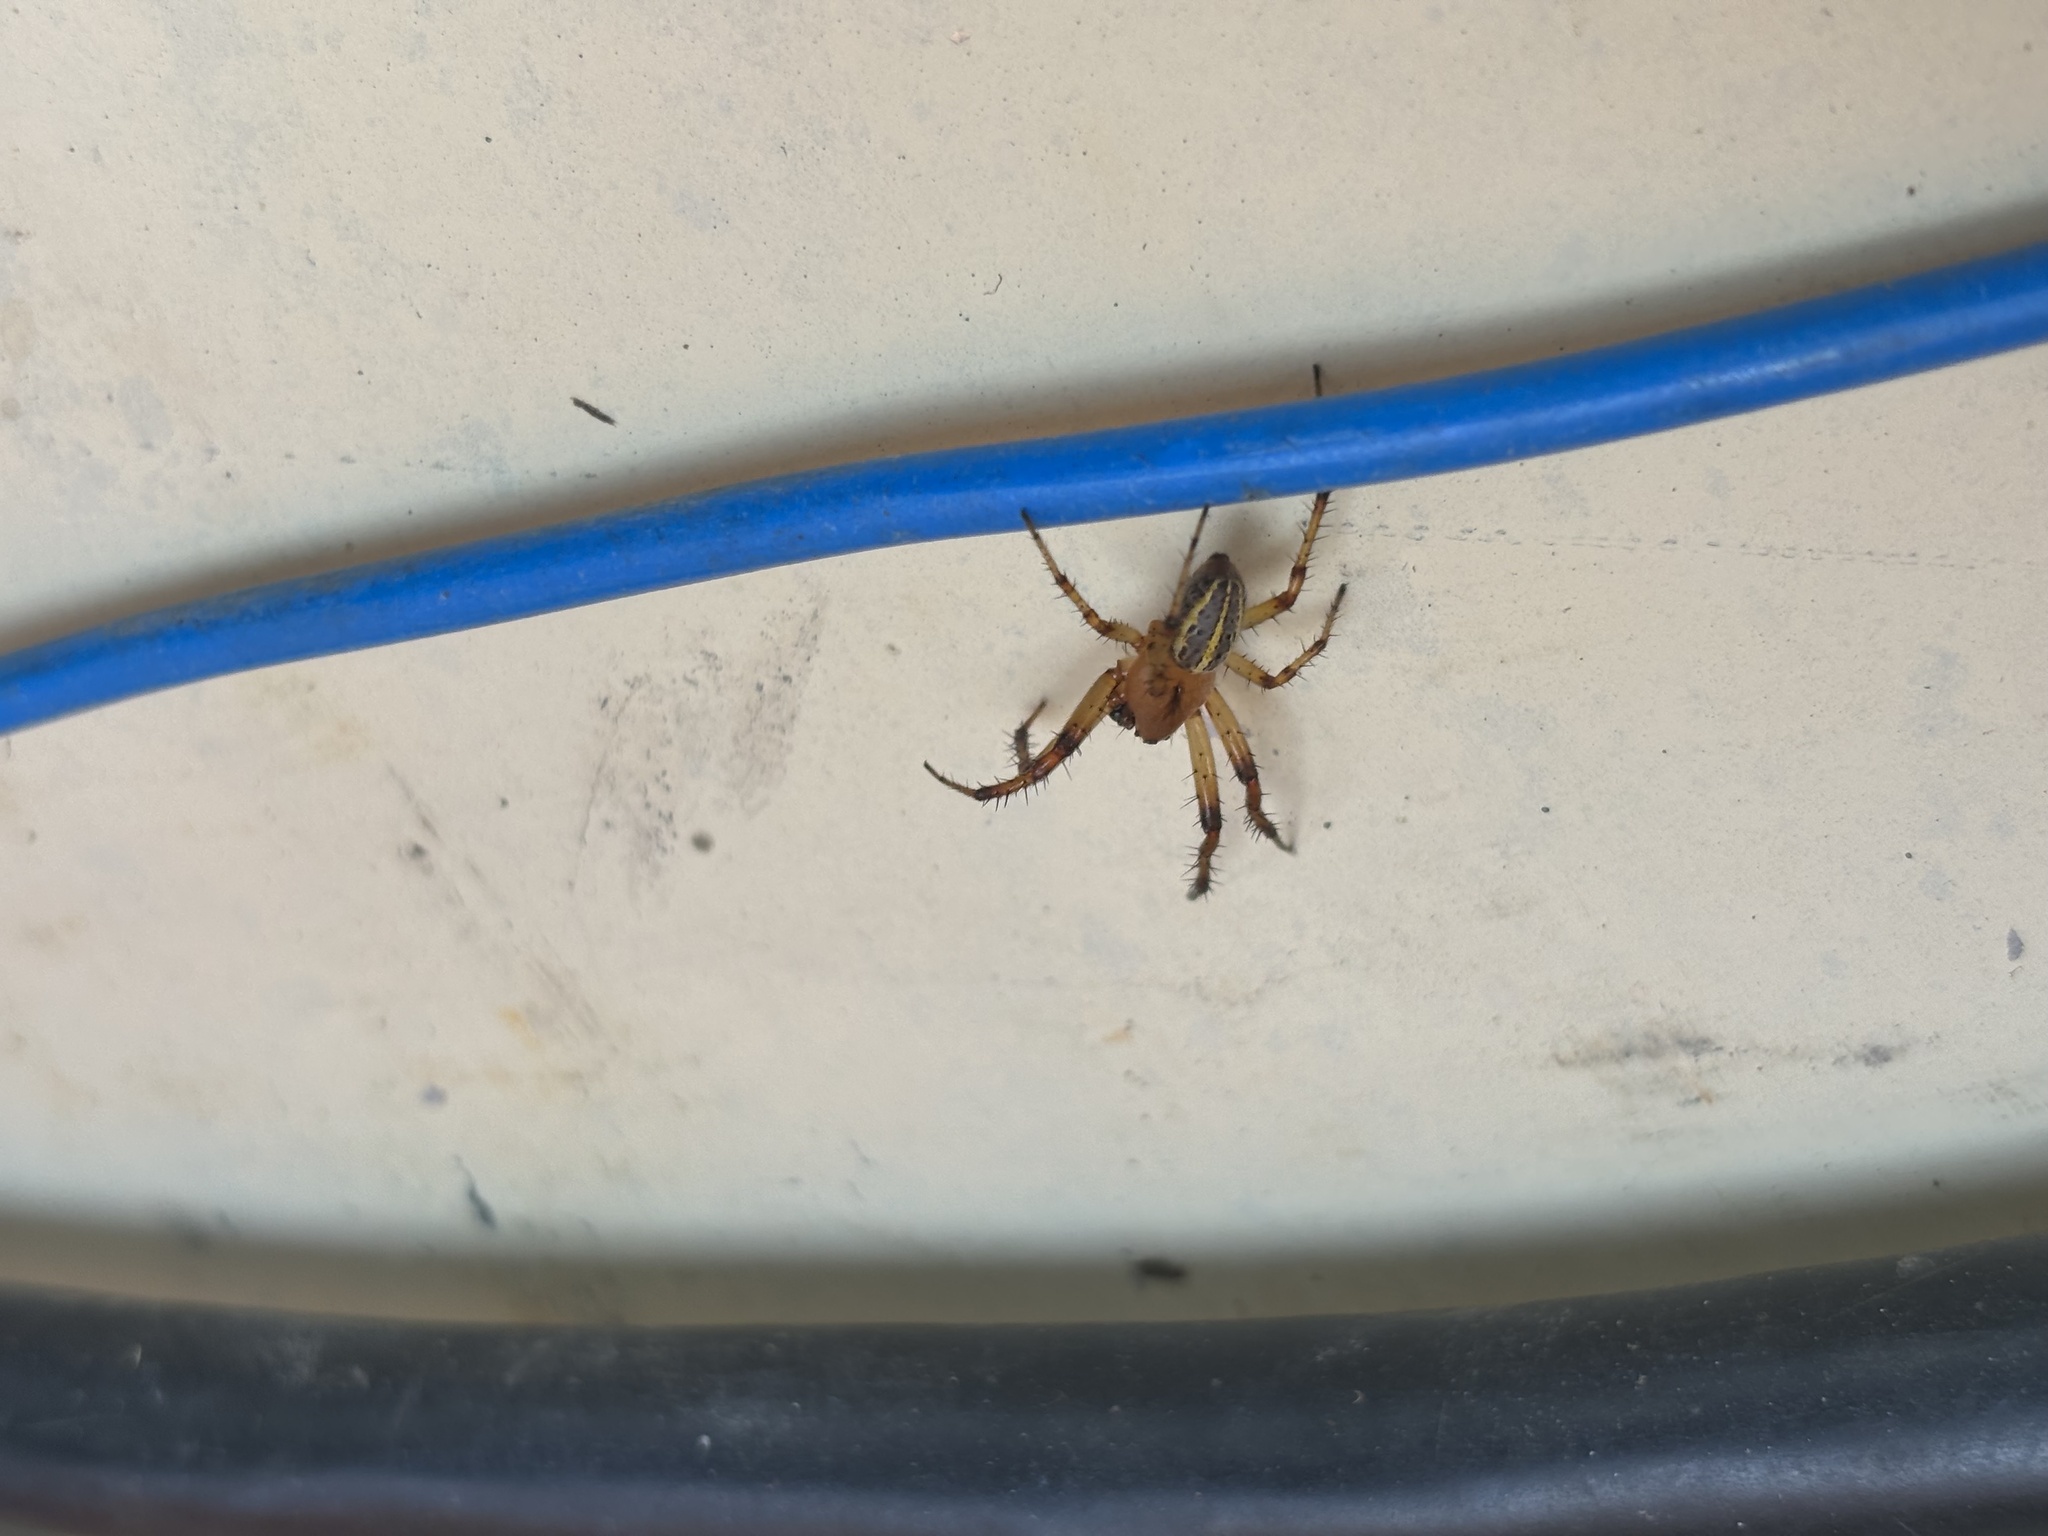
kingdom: Animalia
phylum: Arthropoda
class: Arachnida
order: Araneae
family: Araneidae
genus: Alpaida
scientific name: Alpaida veniliae
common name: Orb weavers
